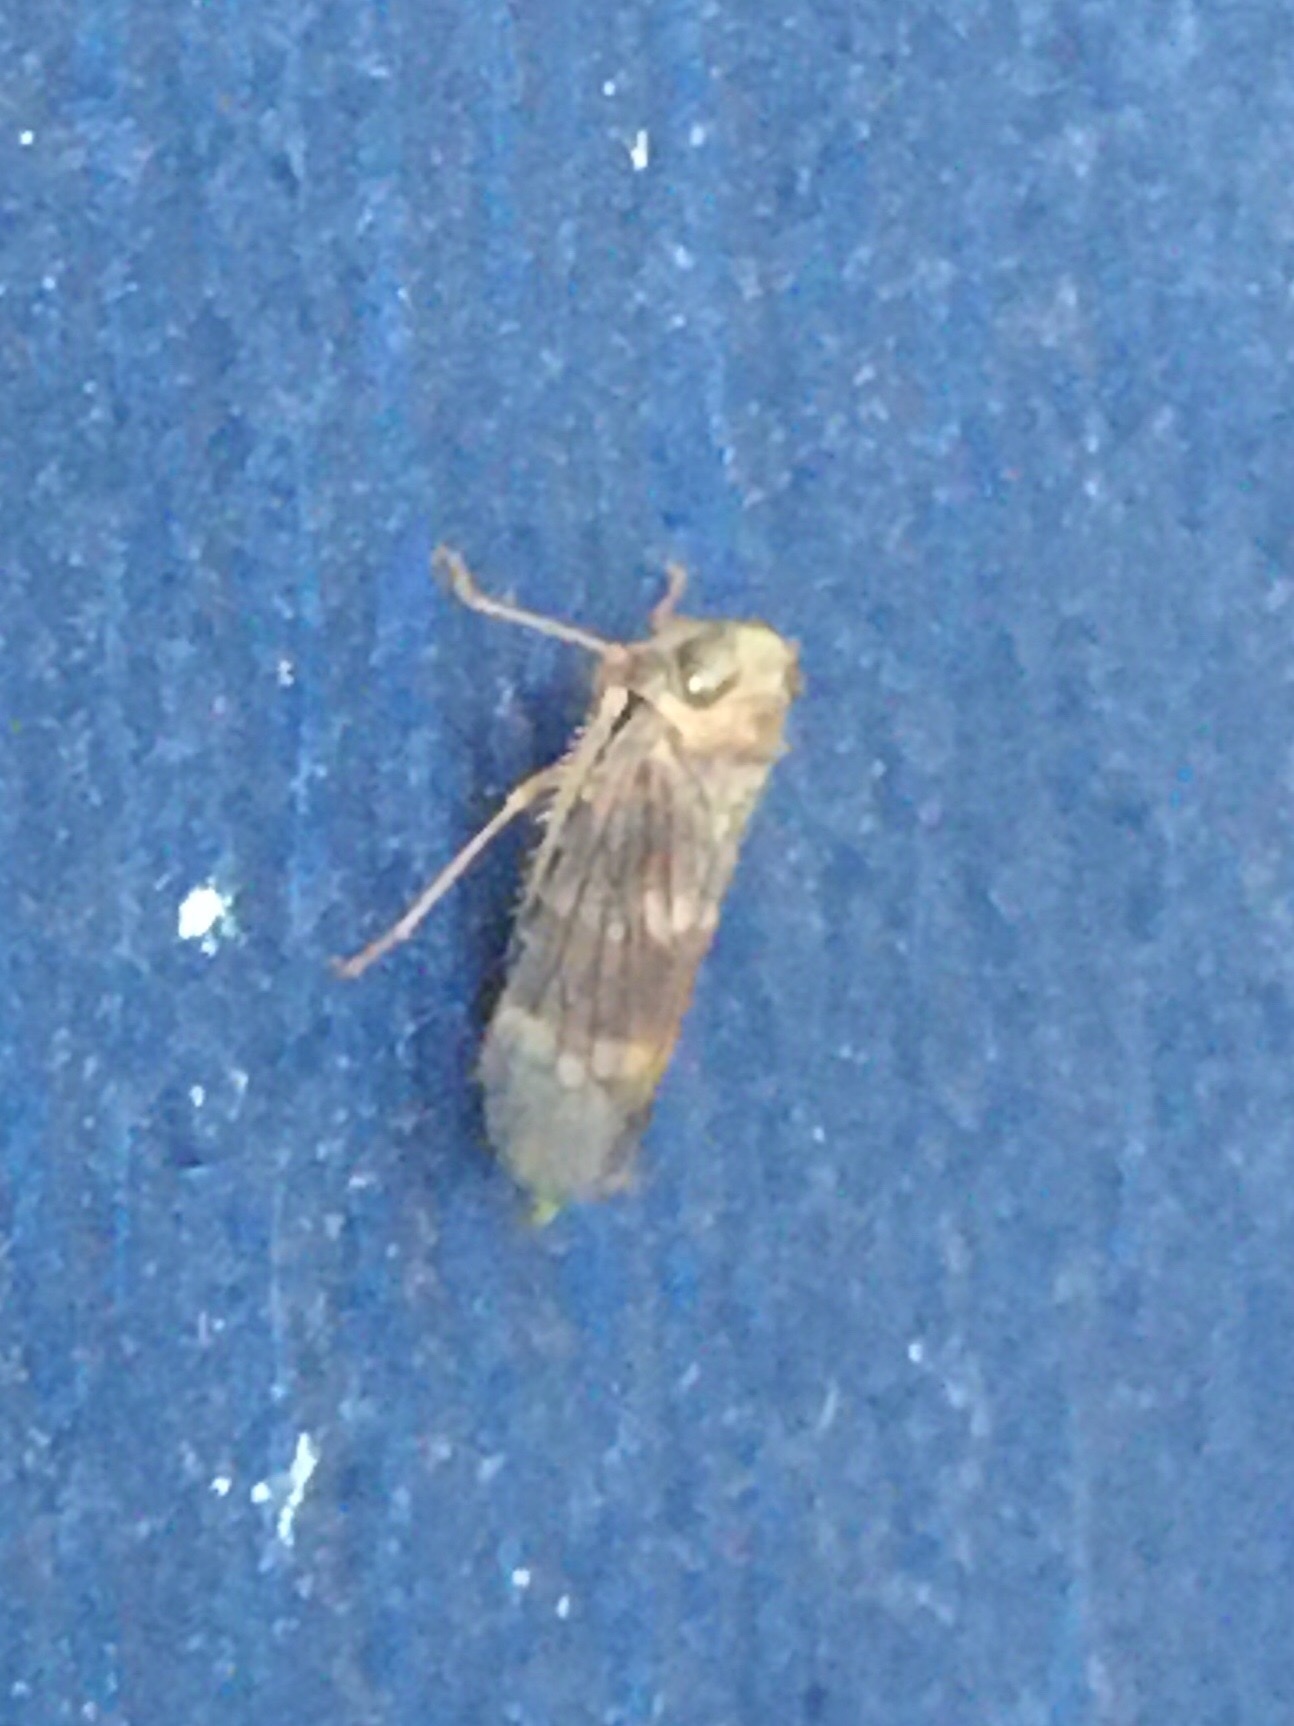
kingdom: Animalia
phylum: Arthropoda
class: Insecta
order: Hemiptera
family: Cicadellidae
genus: Jikradia
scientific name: Jikradia olitoria
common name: Coppery leafhopper
